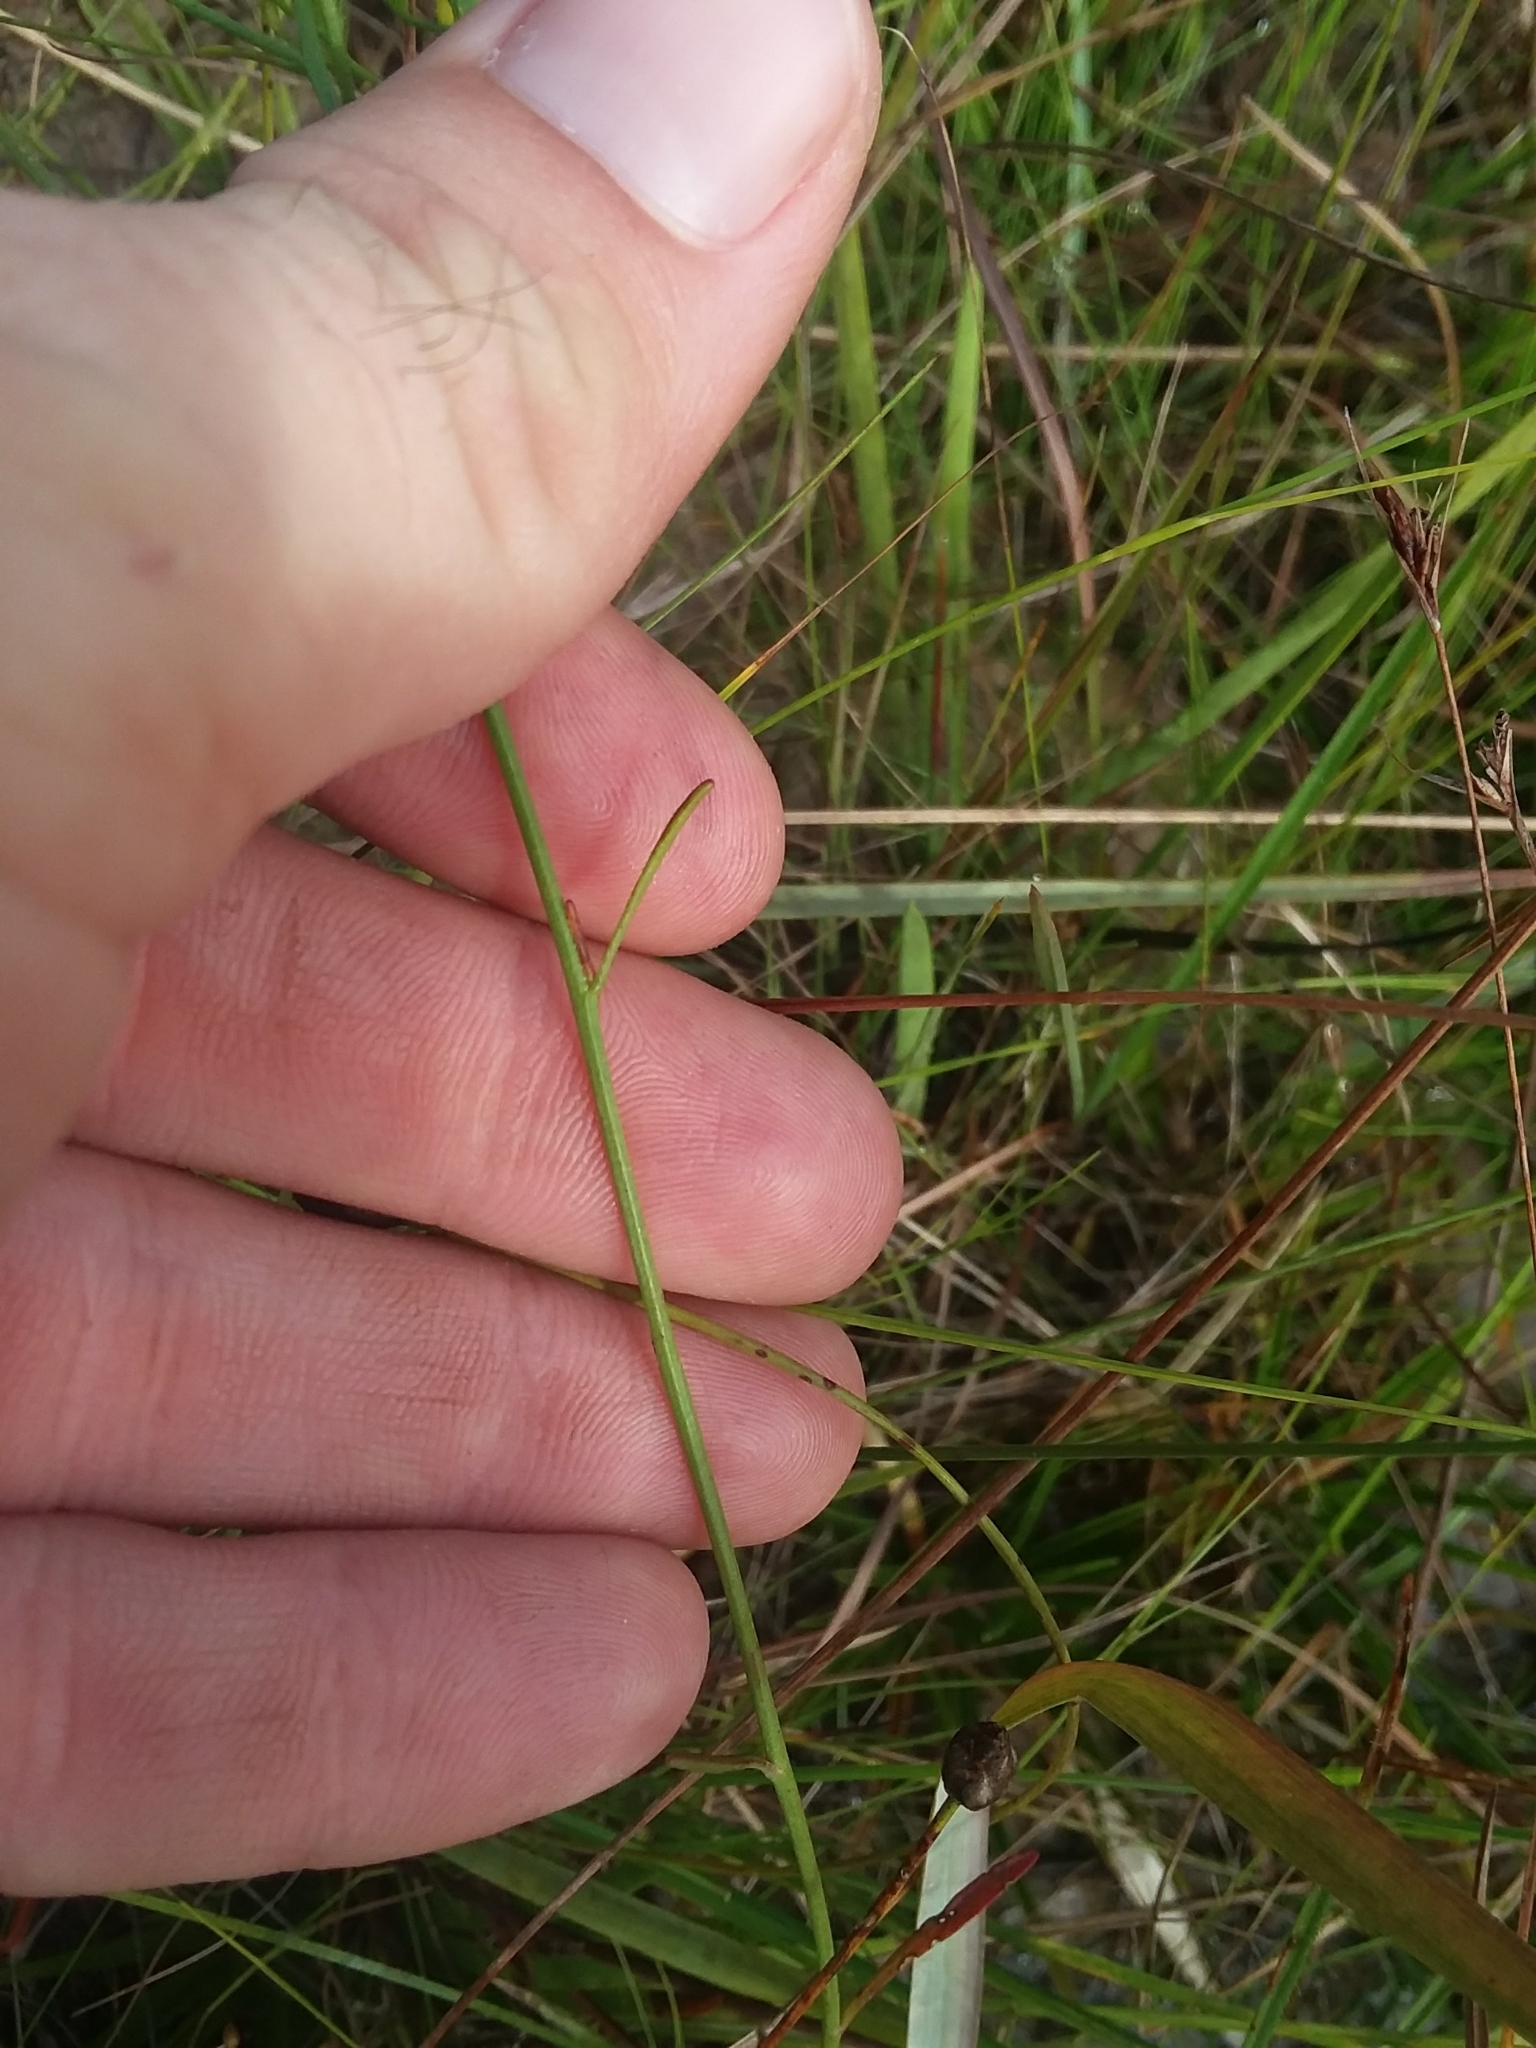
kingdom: Plantae
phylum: Tracheophyta
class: Magnoliopsida
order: Asterales
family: Asteraceae
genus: Bigelowia
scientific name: Bigelowia nudata
